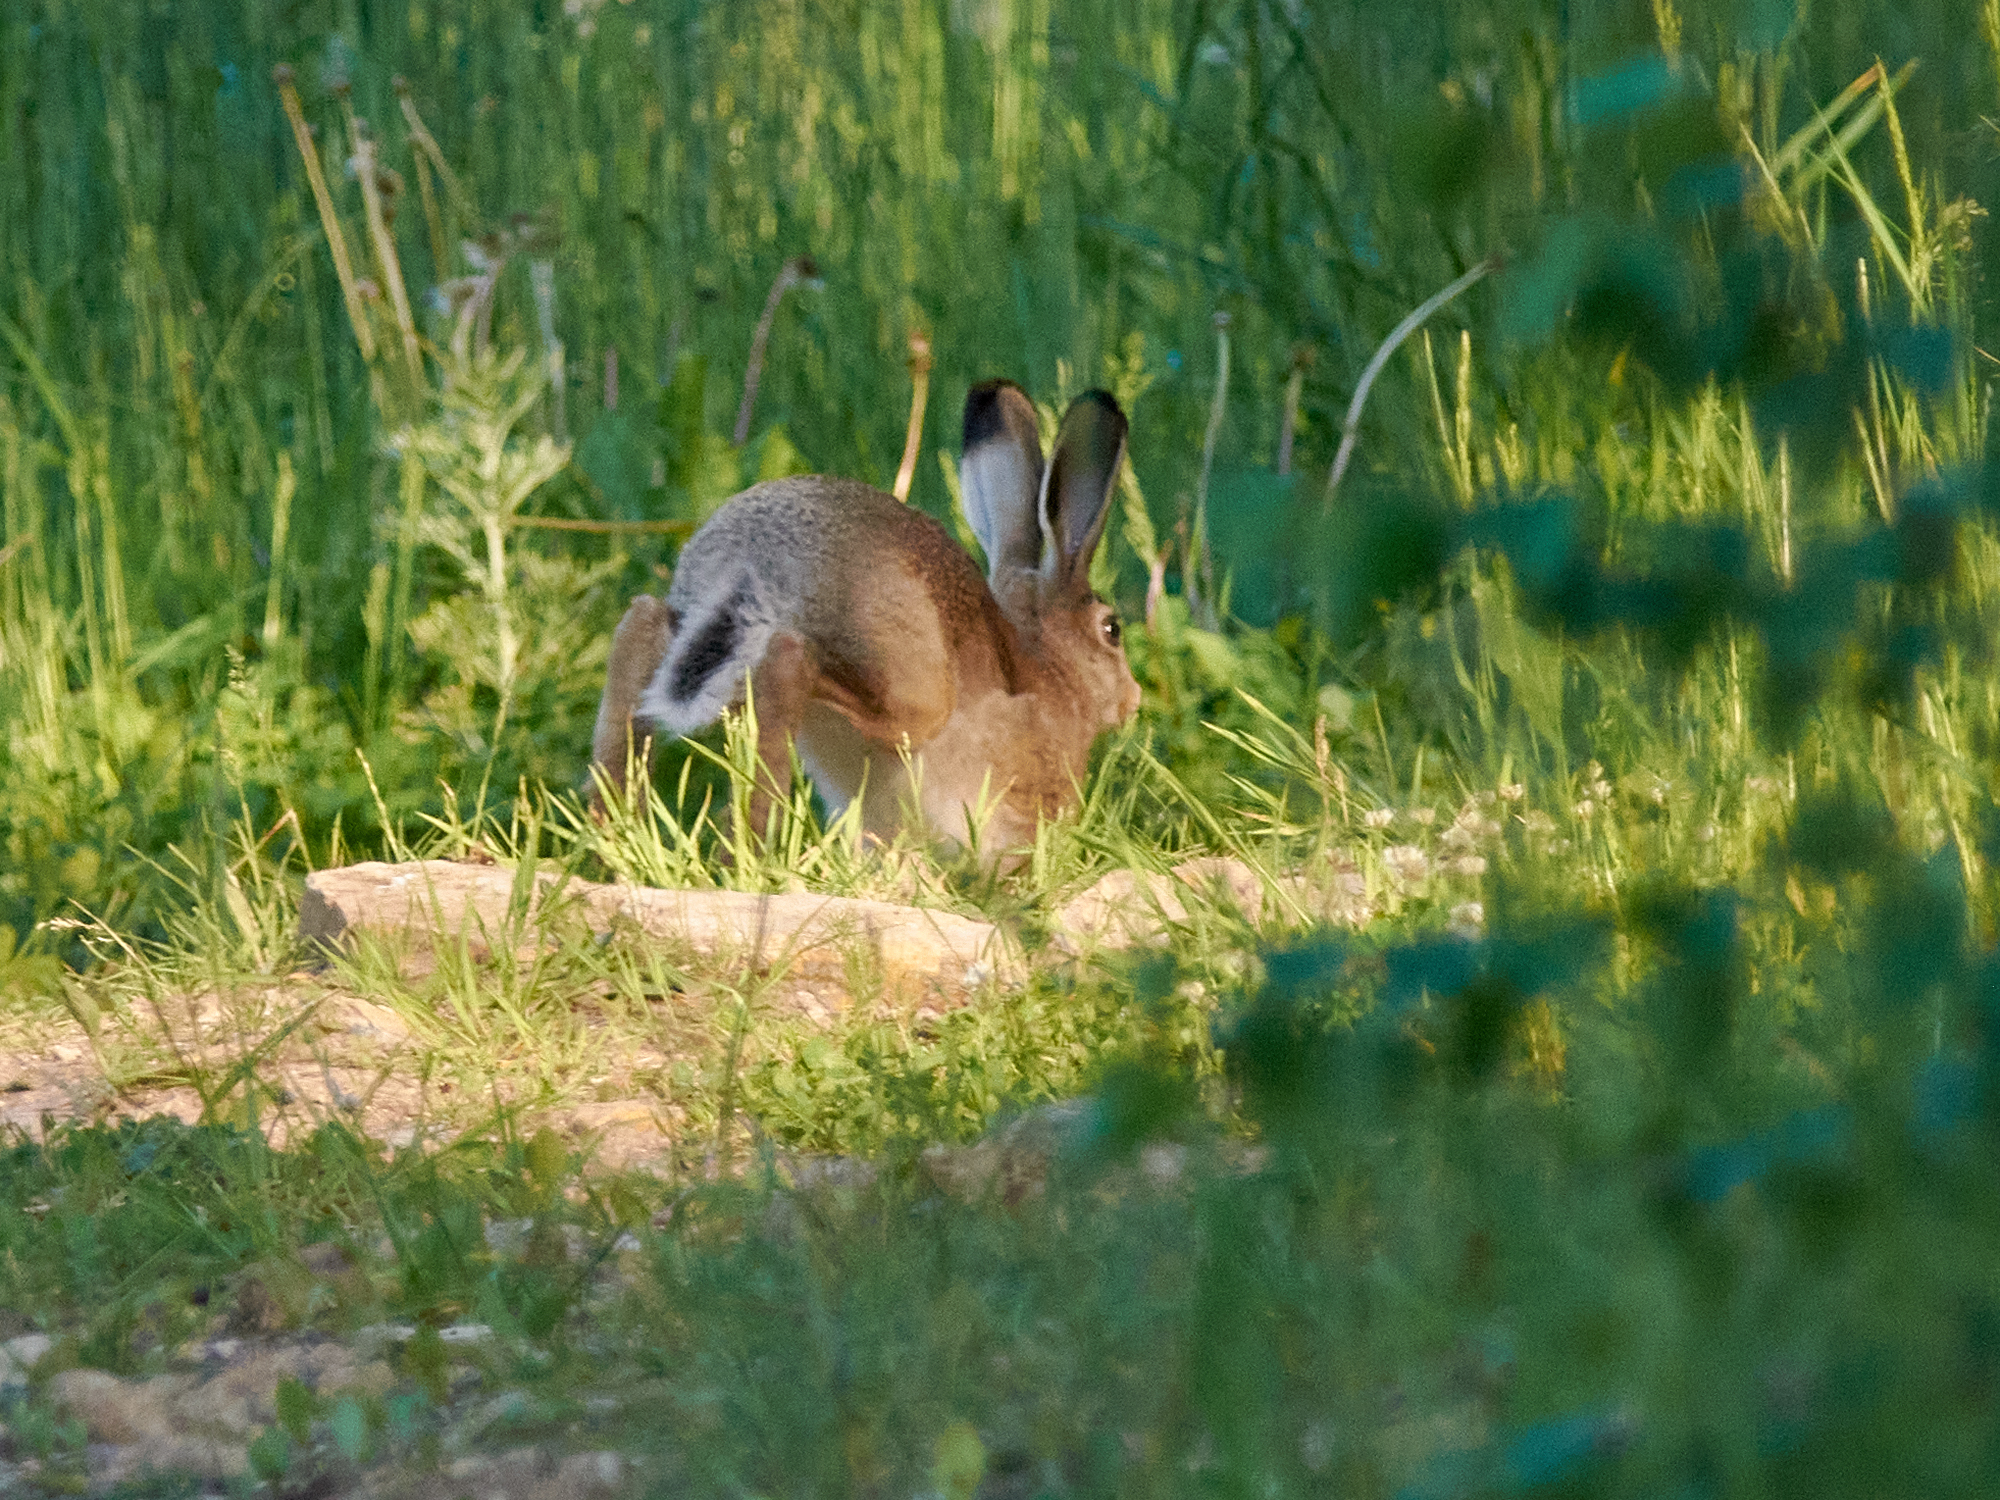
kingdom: Animalia
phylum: Chordata
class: Mammalia
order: Lagomorpha
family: Leporidae
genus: Lepus
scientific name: Lepus europaeus
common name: European hare
